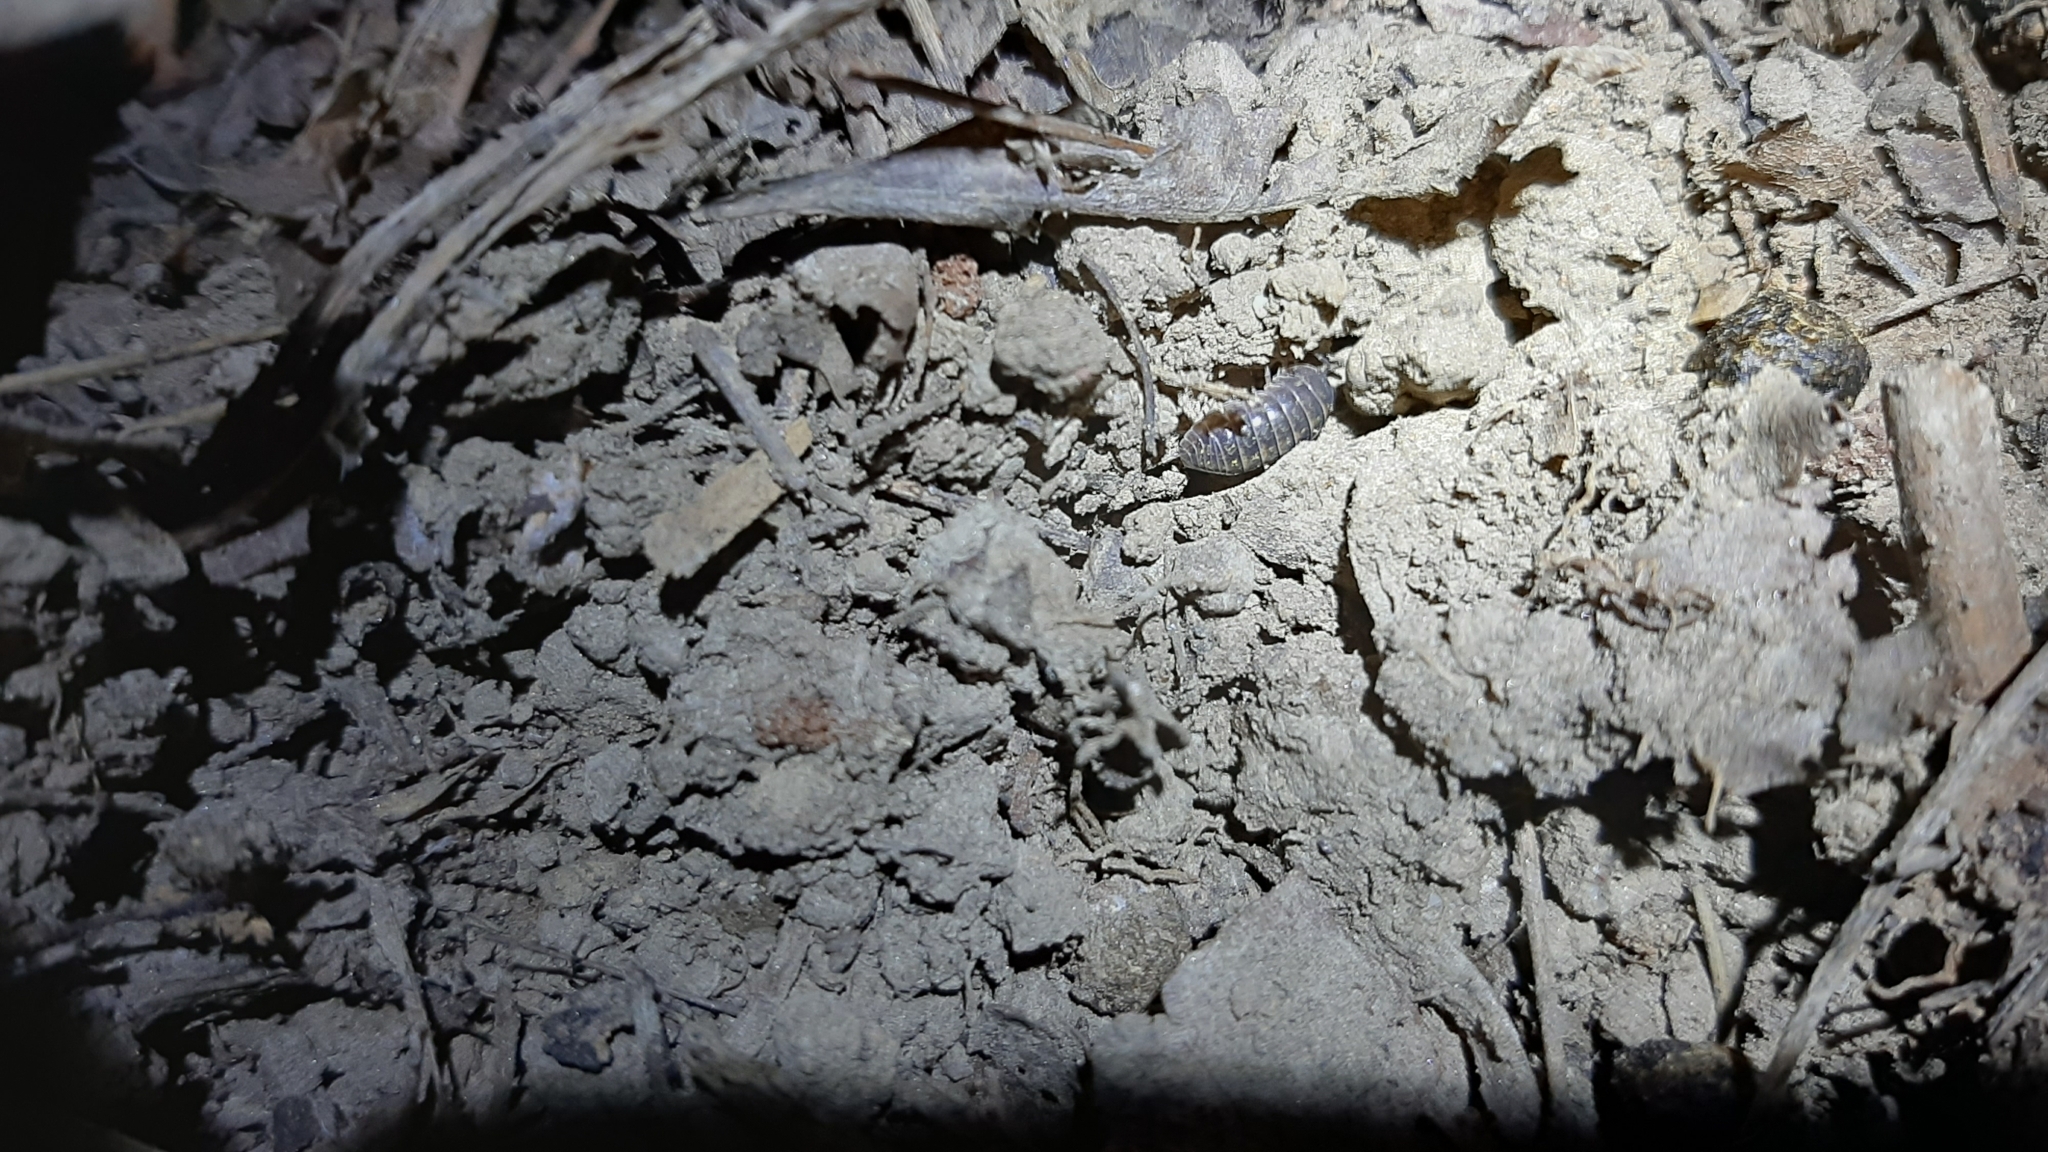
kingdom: Animalia
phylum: Arthropoda
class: Malacostraca
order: Isopoda
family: Armadillidiidae
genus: Armadillidium
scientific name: Armadillidium vulgare
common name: Common pill woodlouse
